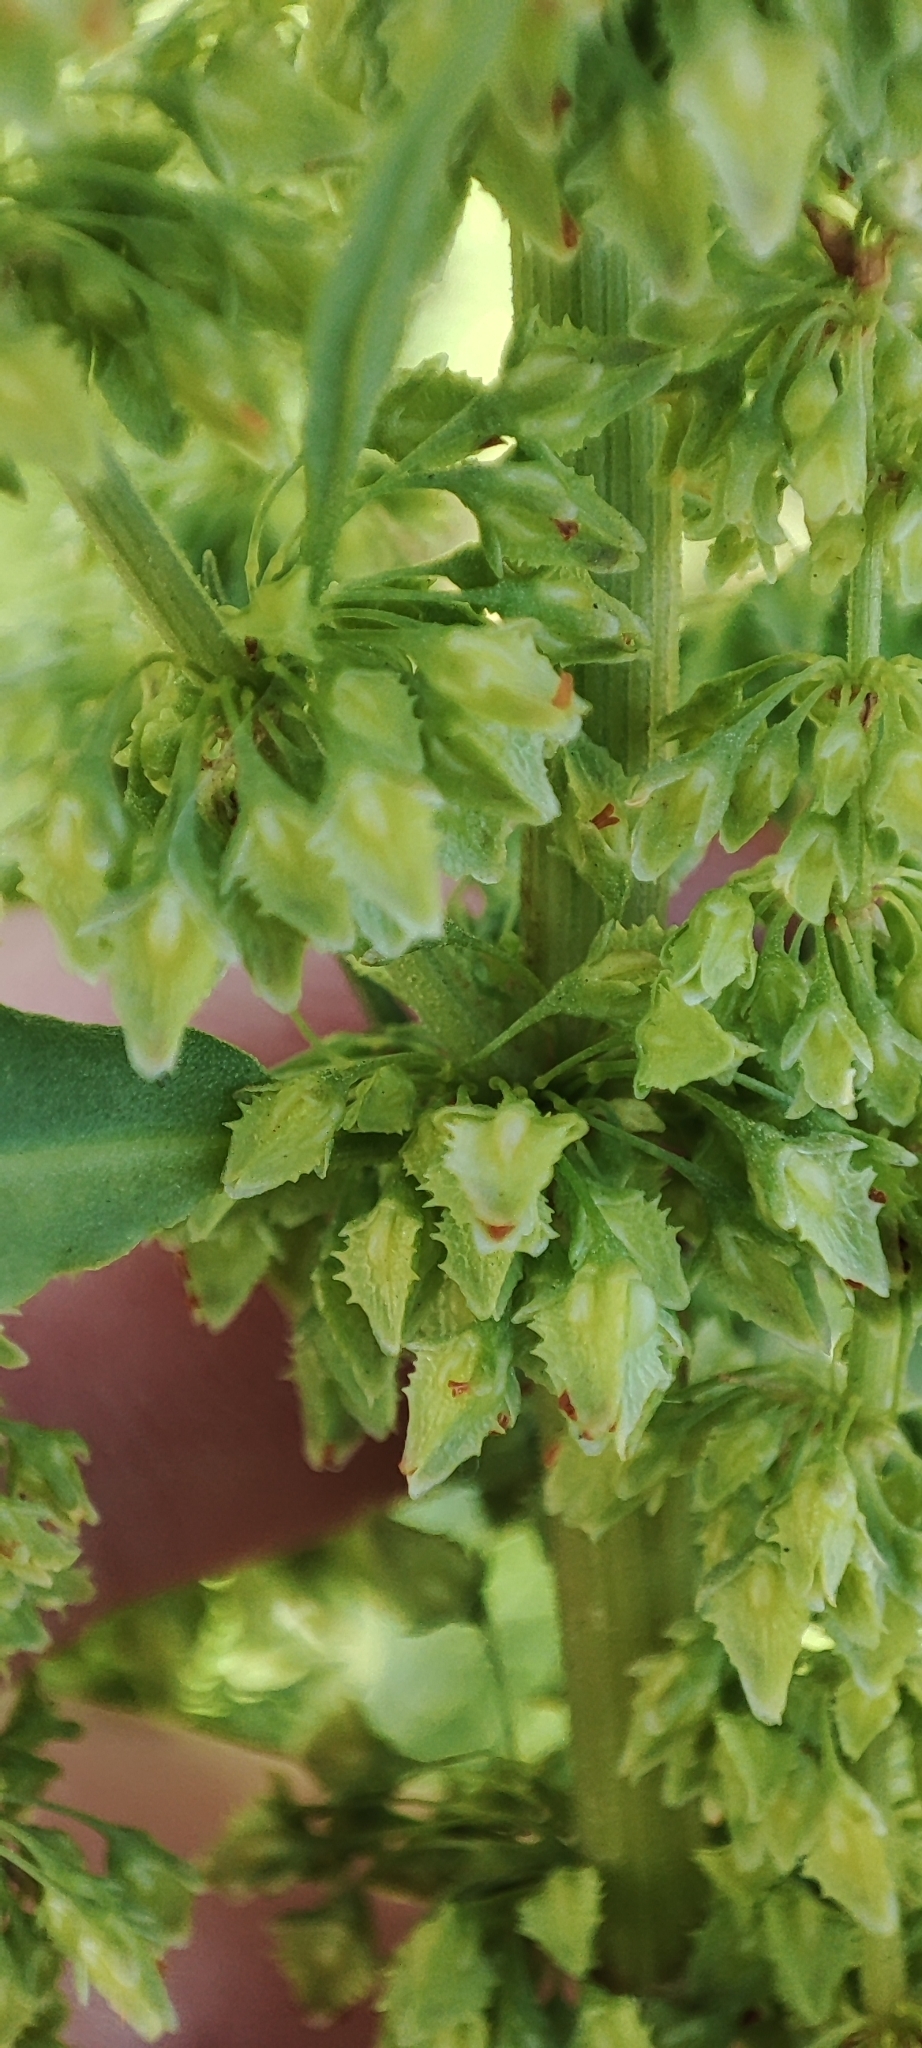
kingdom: Plantae
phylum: Tracheophyta
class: Magnoliopsida
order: Caryophyllales
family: Polygonaceae
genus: Rumex
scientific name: Rumex stenophyllus
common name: Narrowleaf dock
